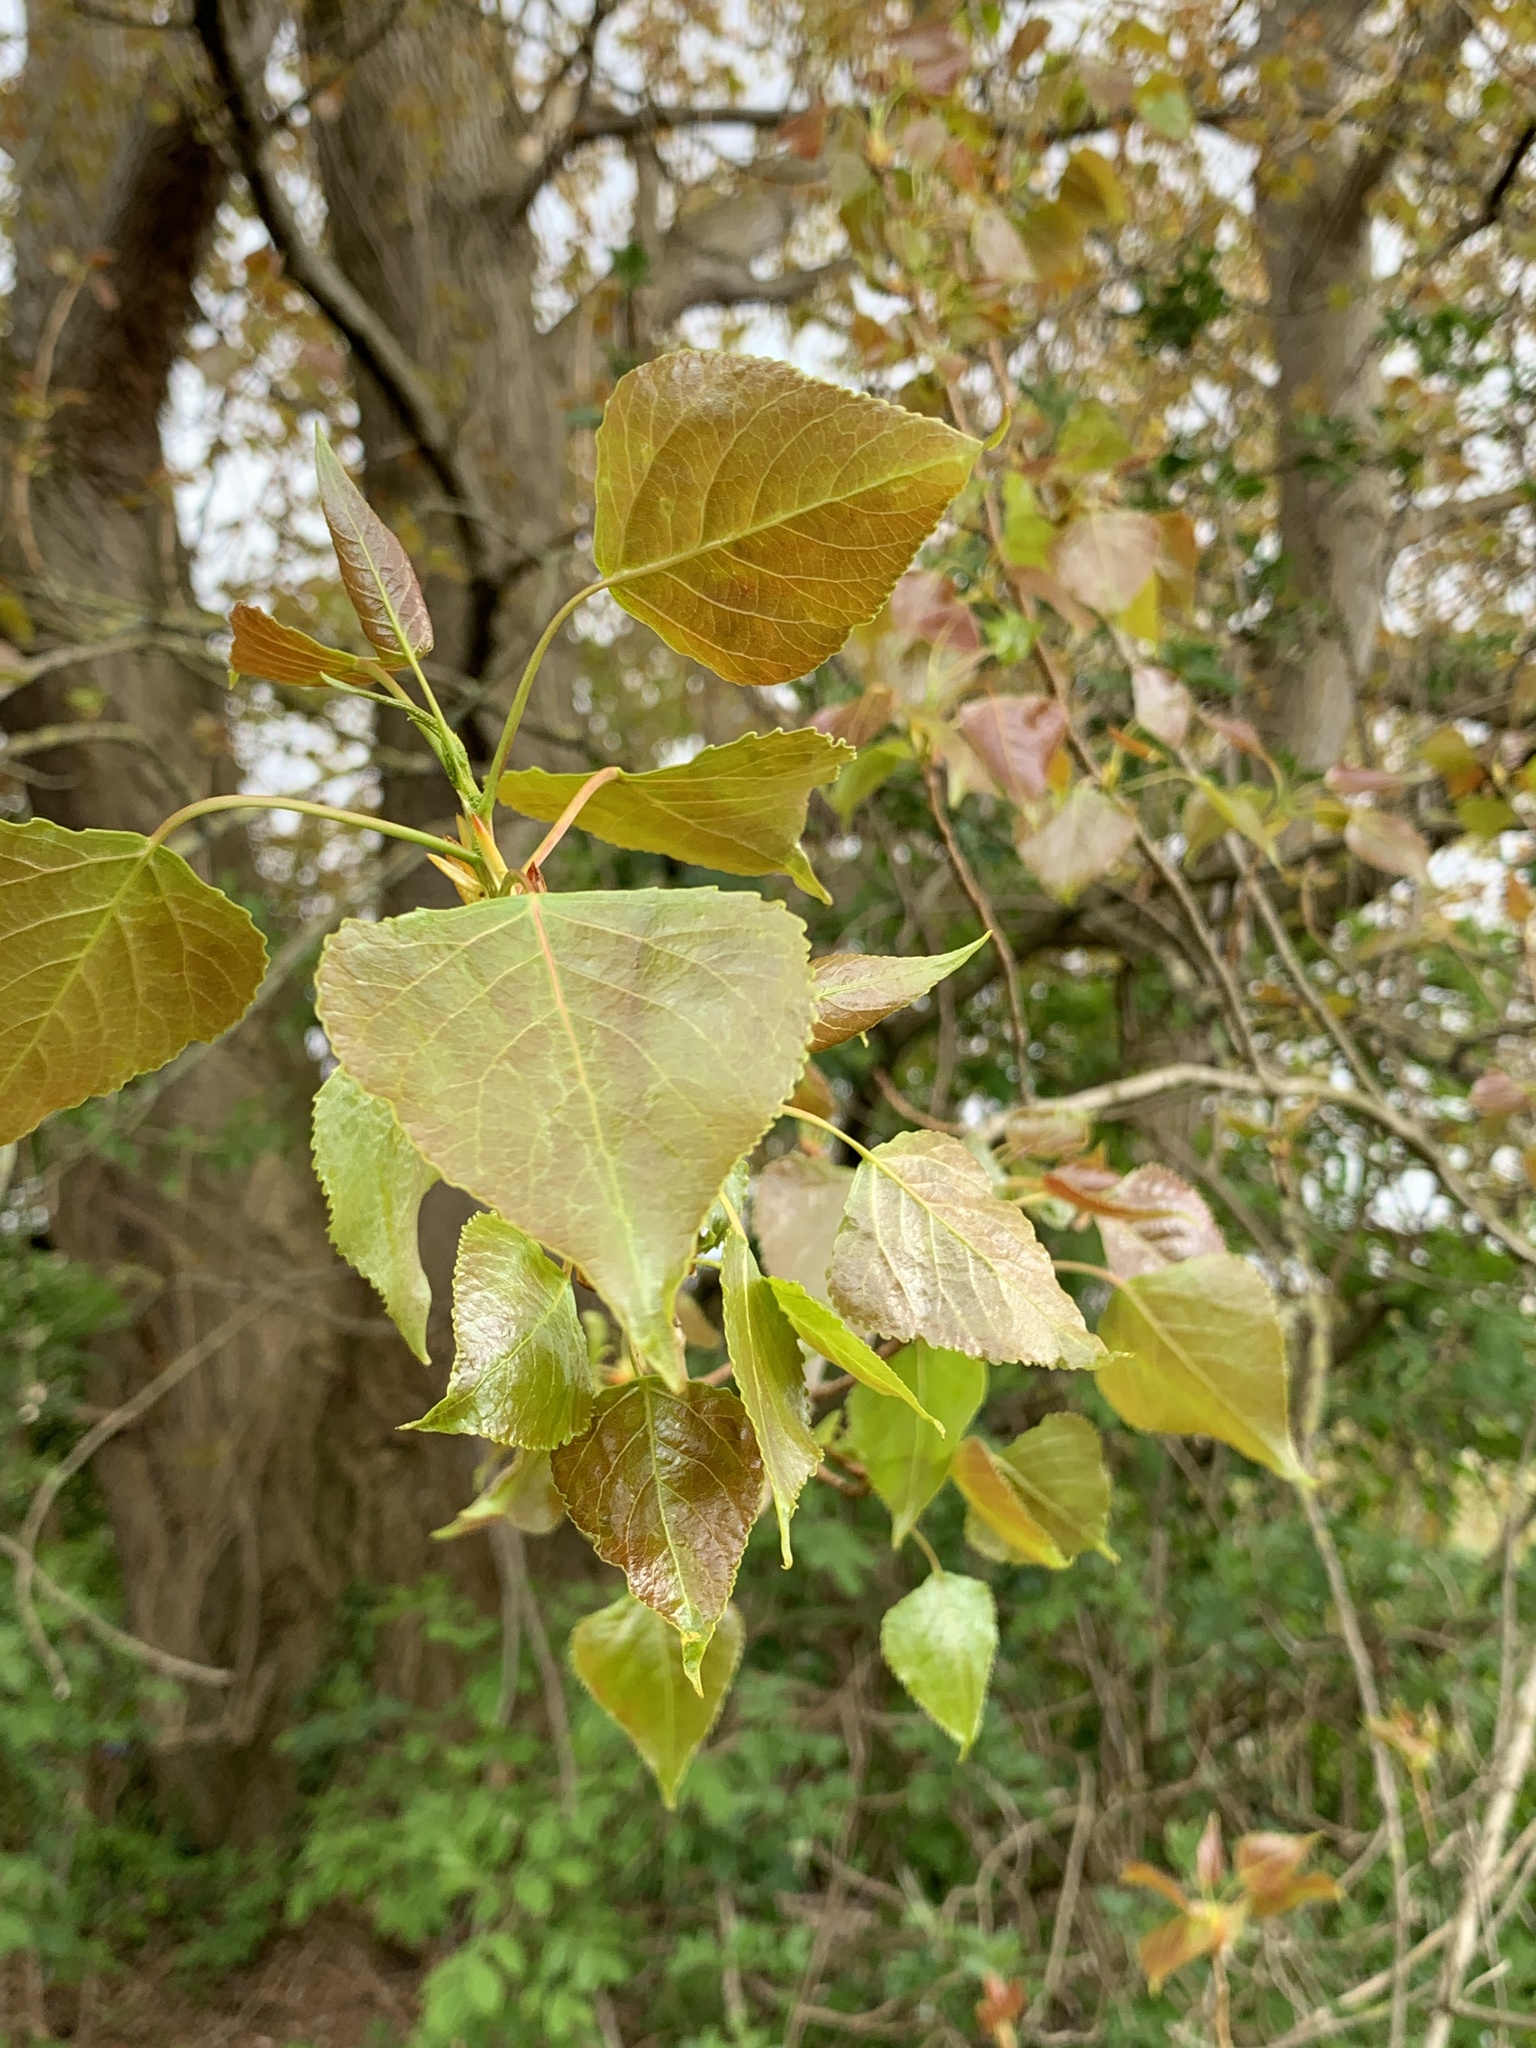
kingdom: Plantae
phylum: Tracheophyta
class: Magnoliopsida
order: Malpighiales
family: Salicaceae
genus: Populus
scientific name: Populus canadensis
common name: Carolina poplar
